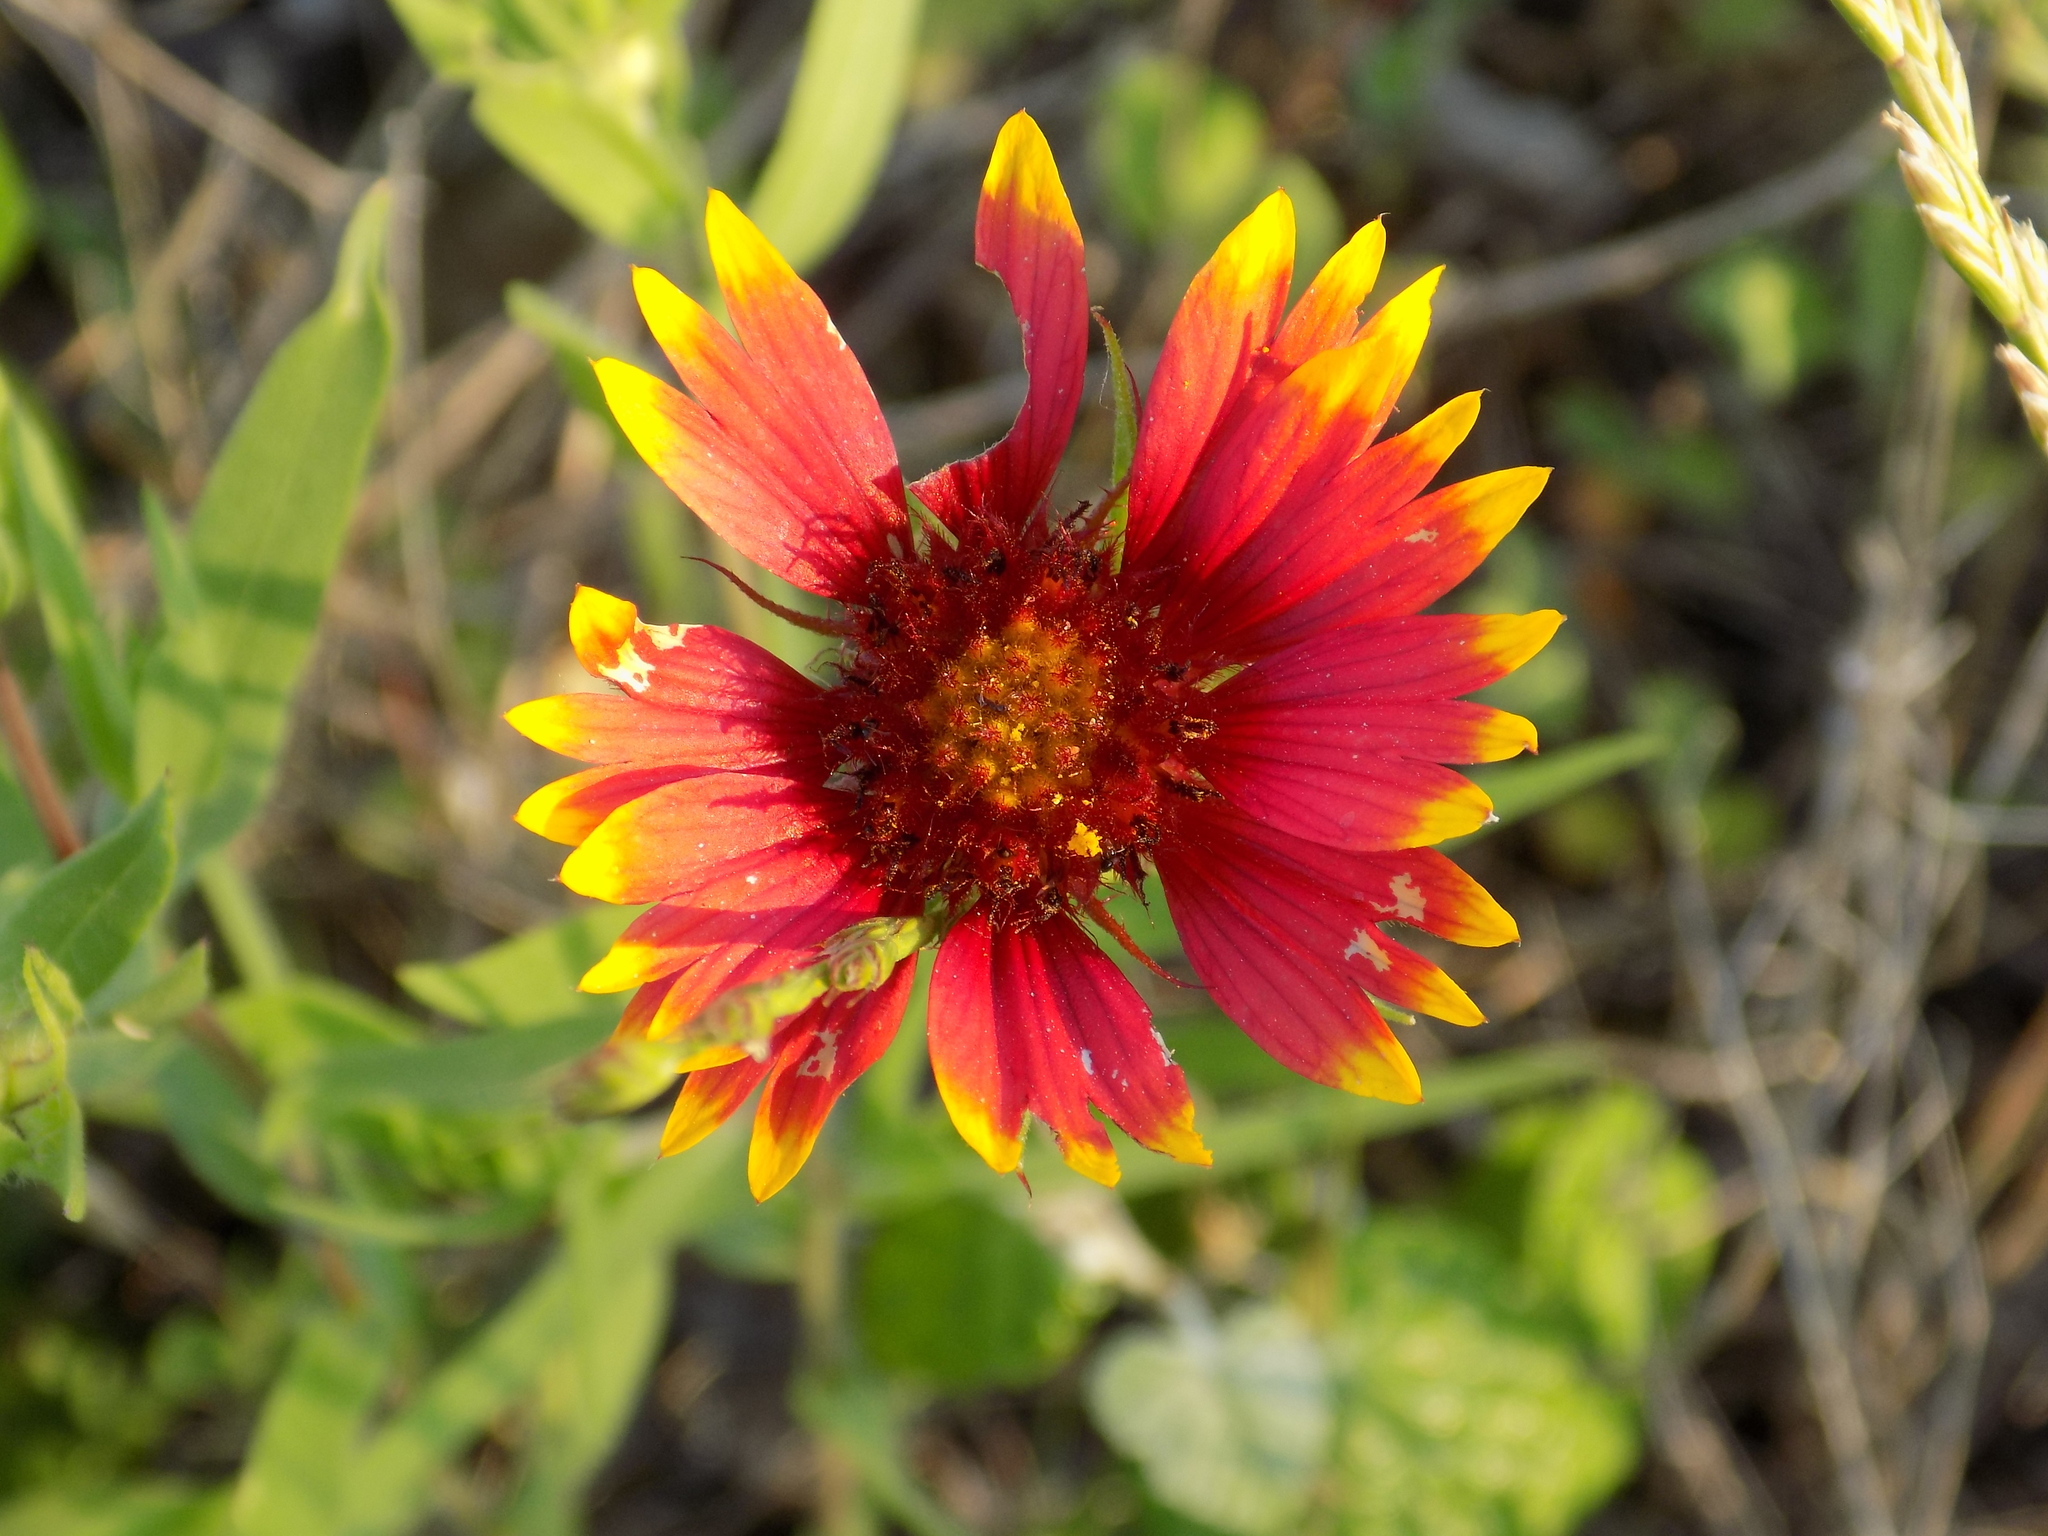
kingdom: Plantae
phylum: Tracheophyta
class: Magnoliopsida
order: Asterales
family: Asteraceae
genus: Gaillardia
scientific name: Gaillardia pulchella
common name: Firewheel
